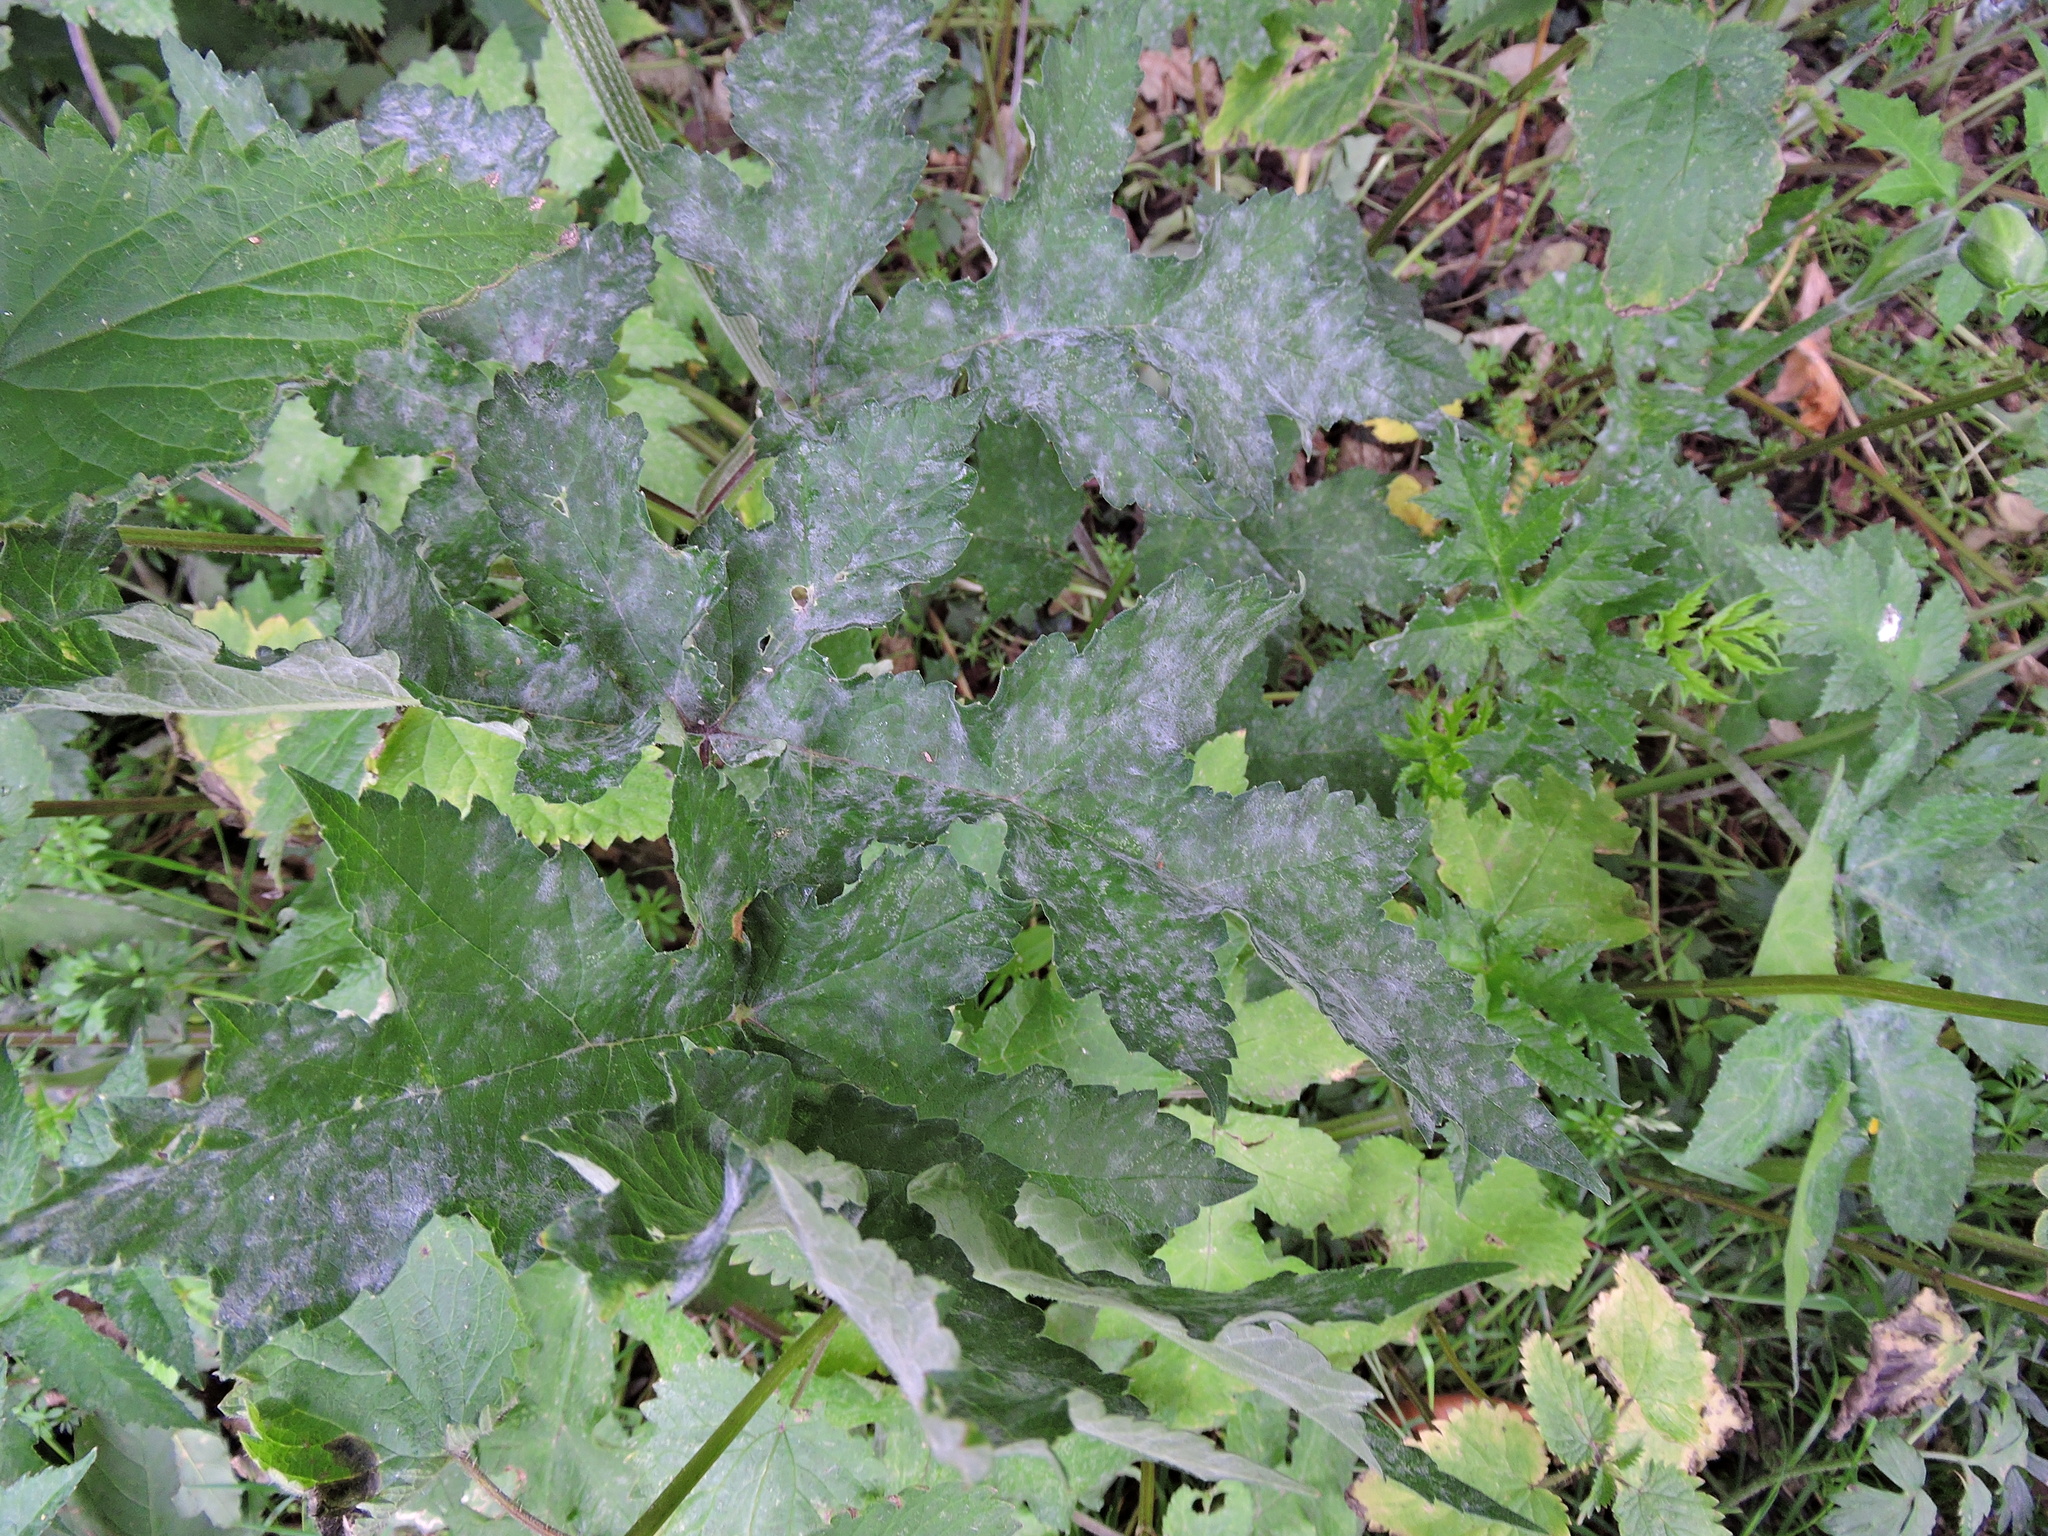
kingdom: Fungi
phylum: Ascomycota
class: Leotiomycetes
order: Helotiales
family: Erysiphaceae
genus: Erysiphe
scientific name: Erysiphe heraclei
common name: Umbellifer mildew
